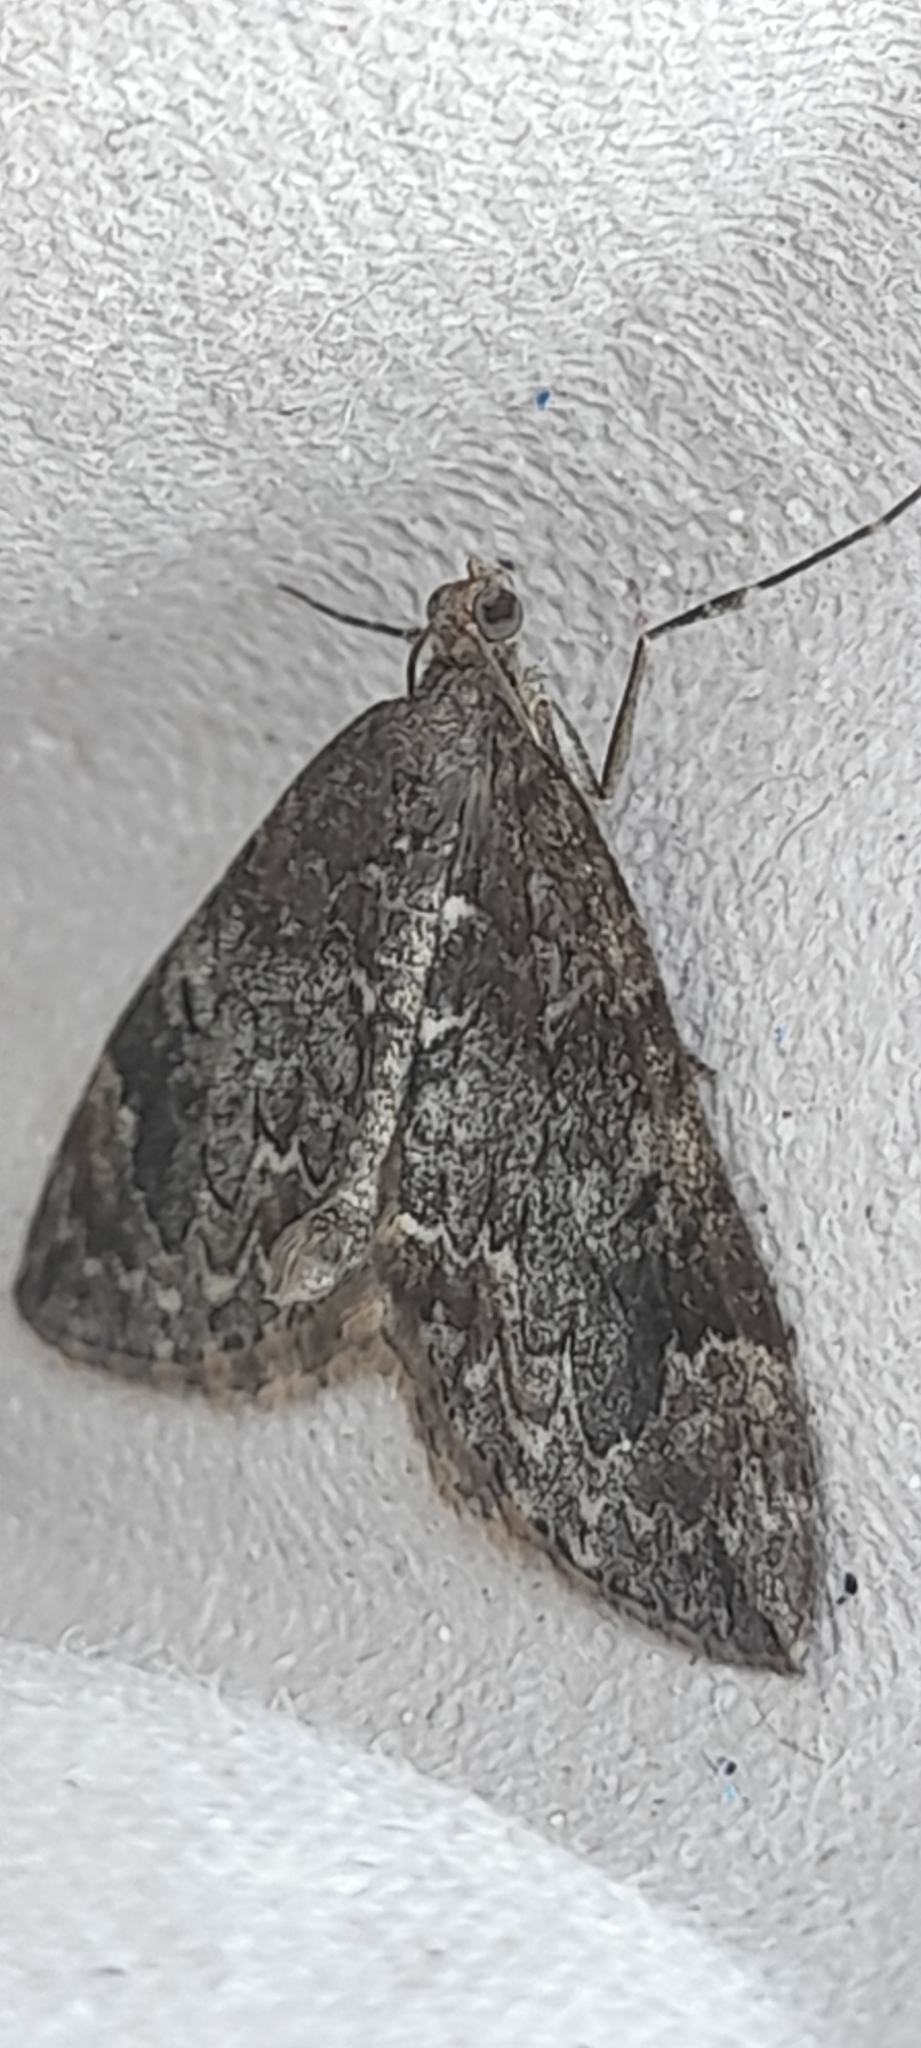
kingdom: Animalia
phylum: Arthropoda
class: Insecta
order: Lepidoptera
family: Geometridae
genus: Dysstroma
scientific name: Dysstroma truncata
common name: Common marbled carpet
